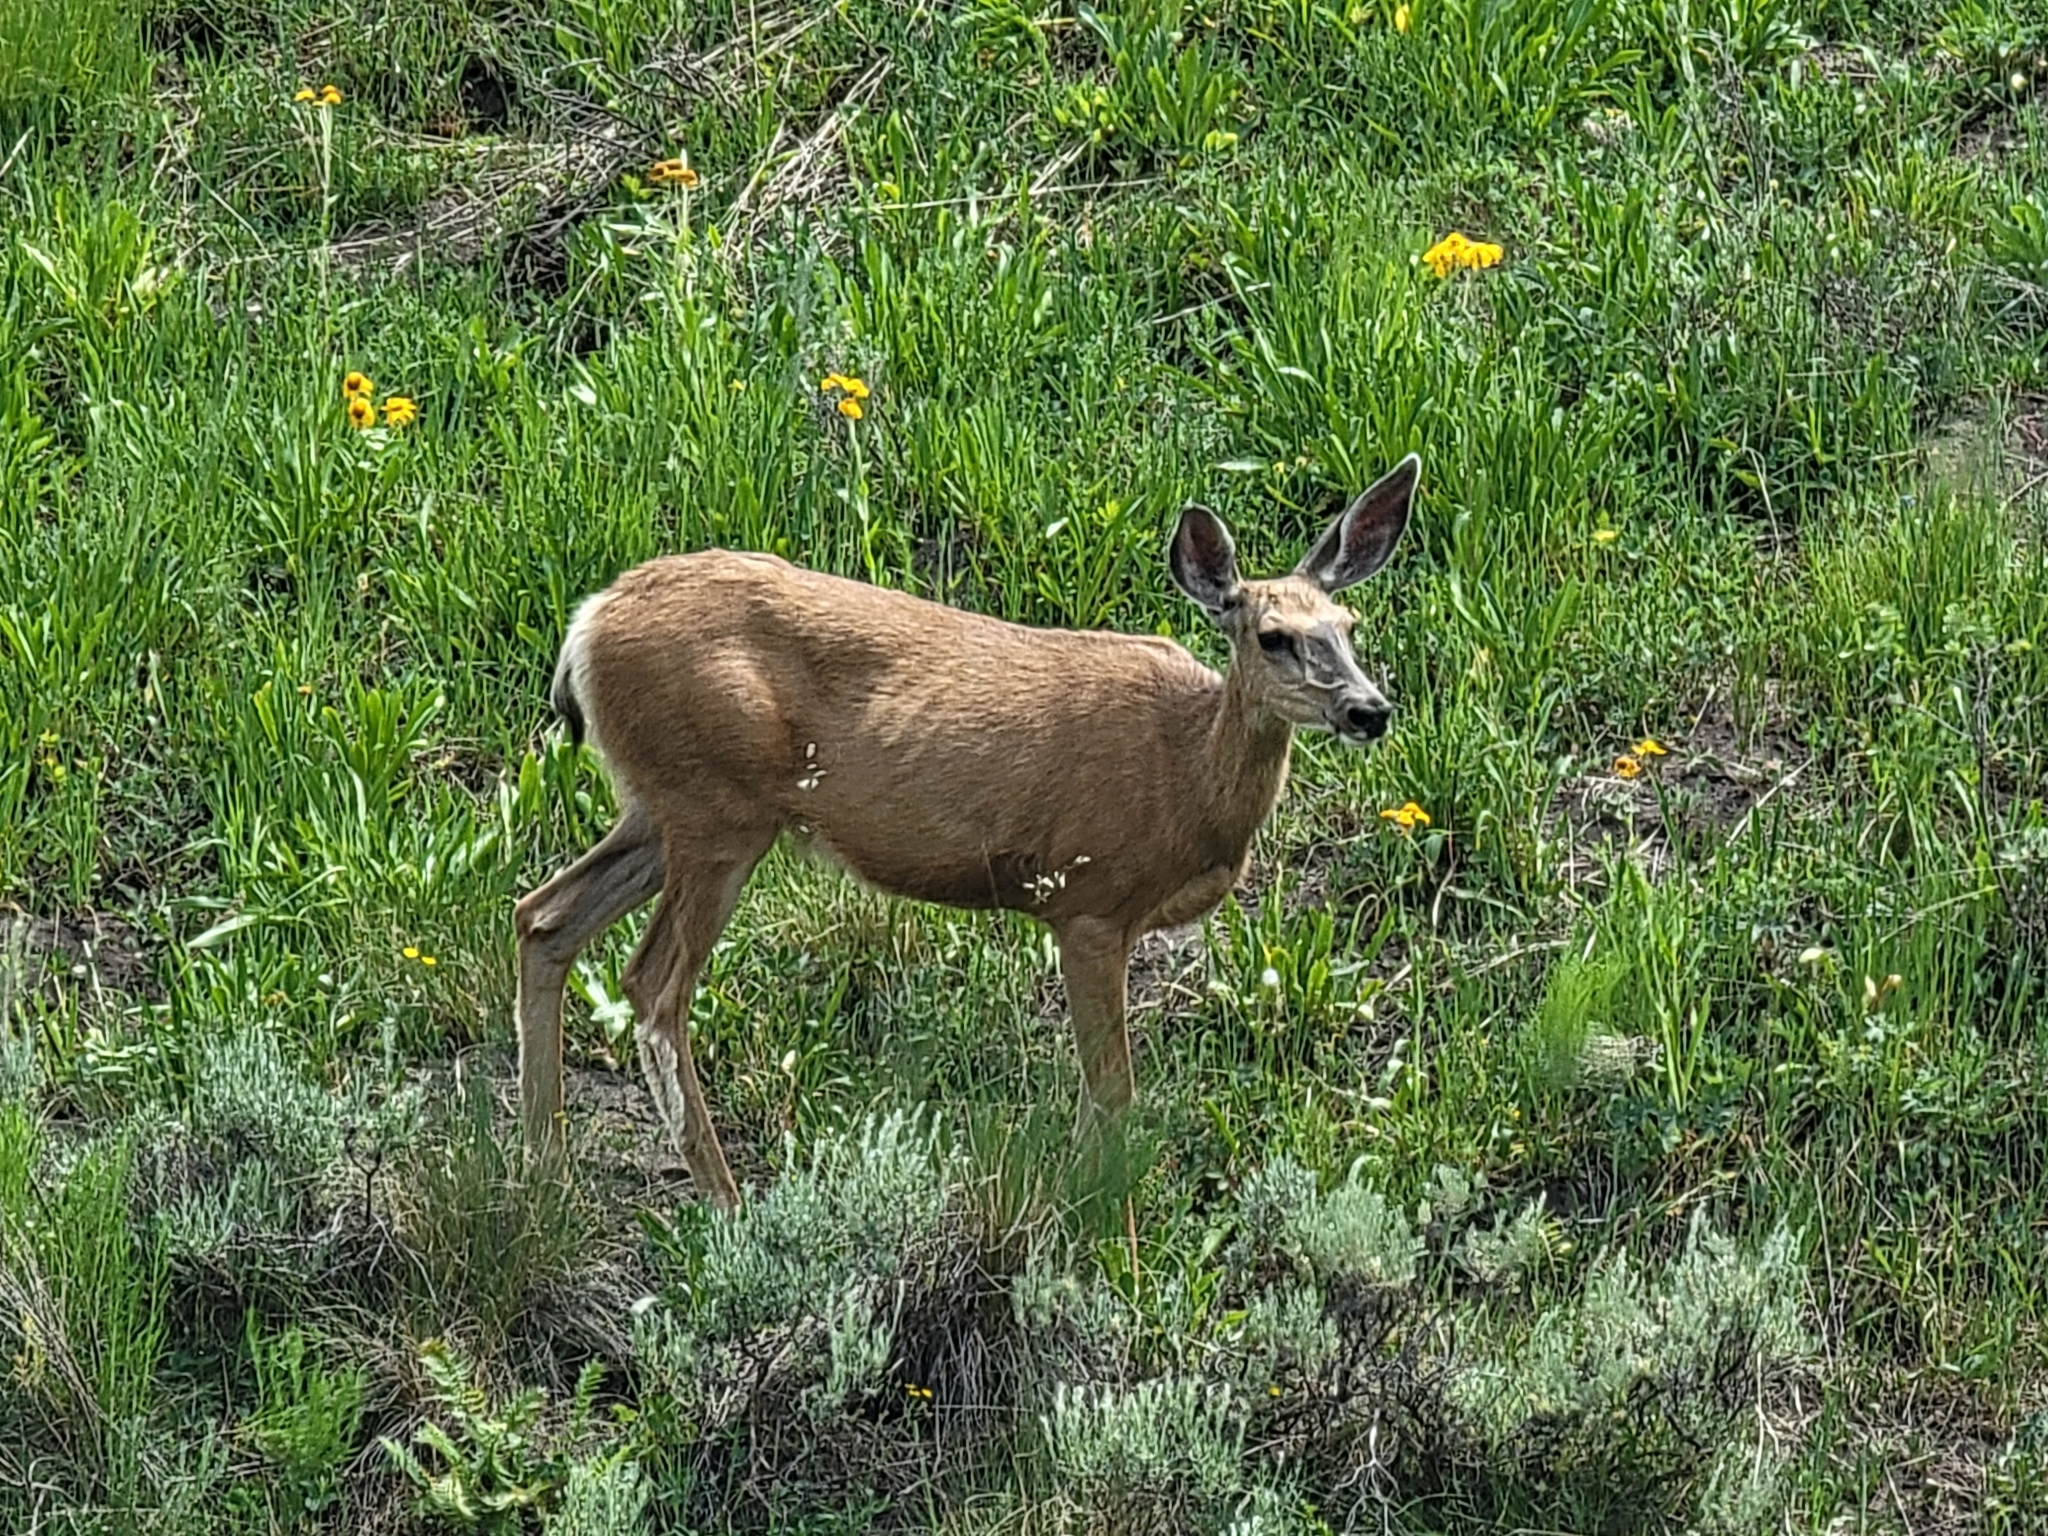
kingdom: Animalia
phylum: Chordata
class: Mammalia
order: Artiodactyla
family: Cervidae
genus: Odocoileus
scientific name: Odocoileus hemionus
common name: Mule deer
